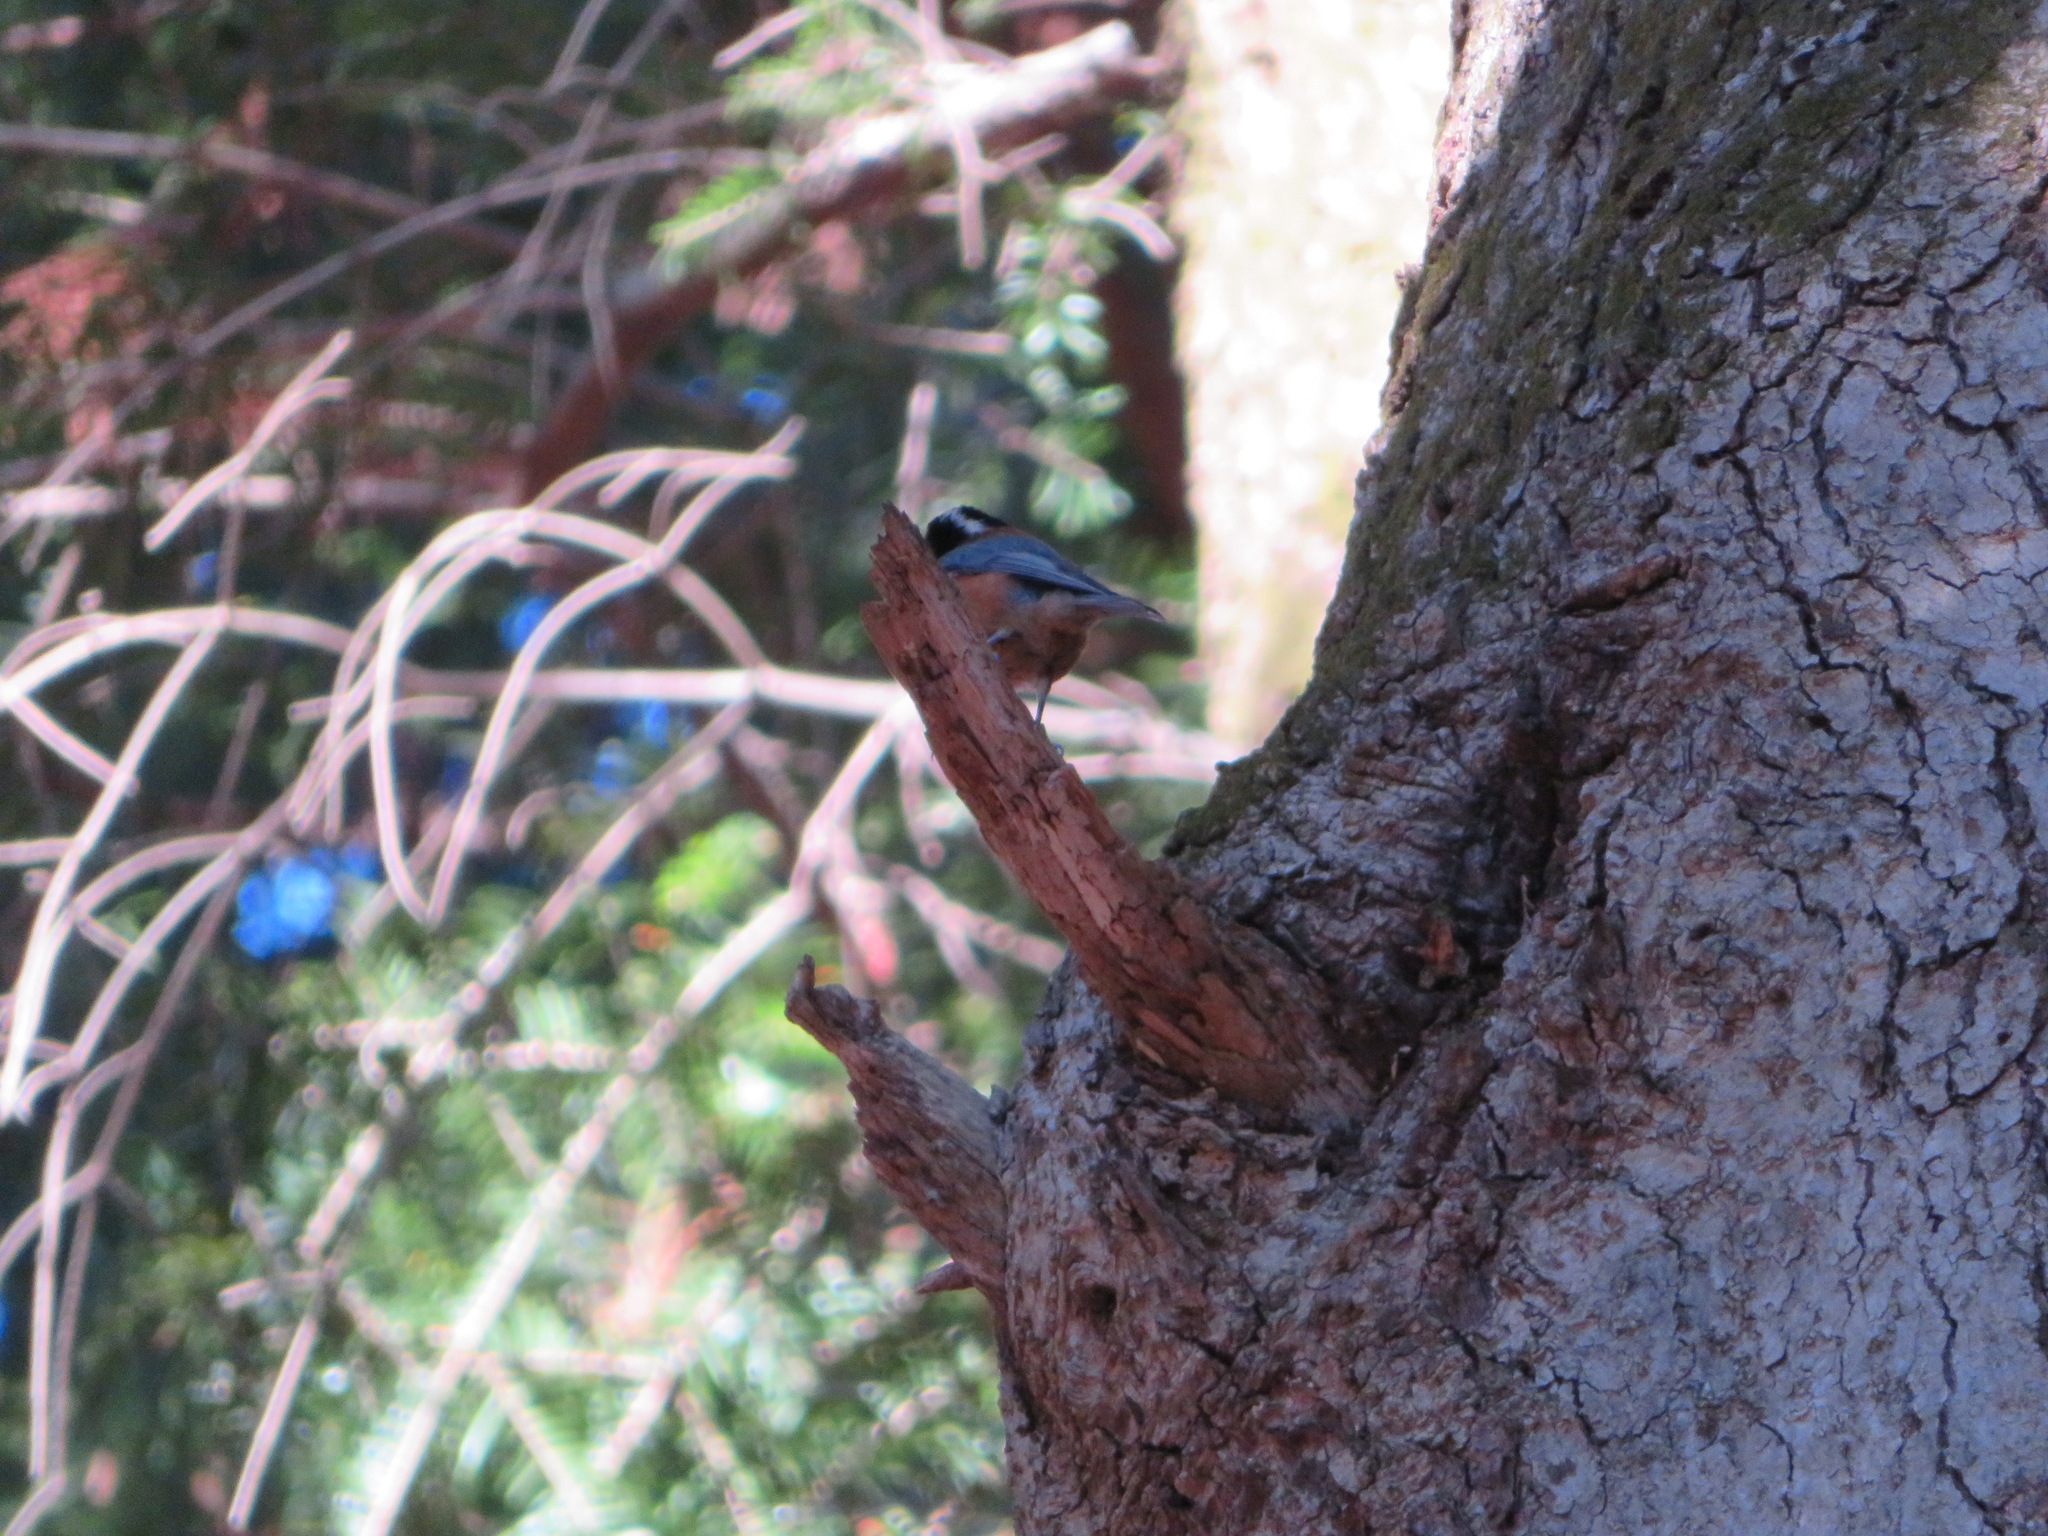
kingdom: Animalia
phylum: Chordata
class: Aves
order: Passeriformes
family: Paridae
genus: Poecile
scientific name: Poecile varius
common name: Varied tit
